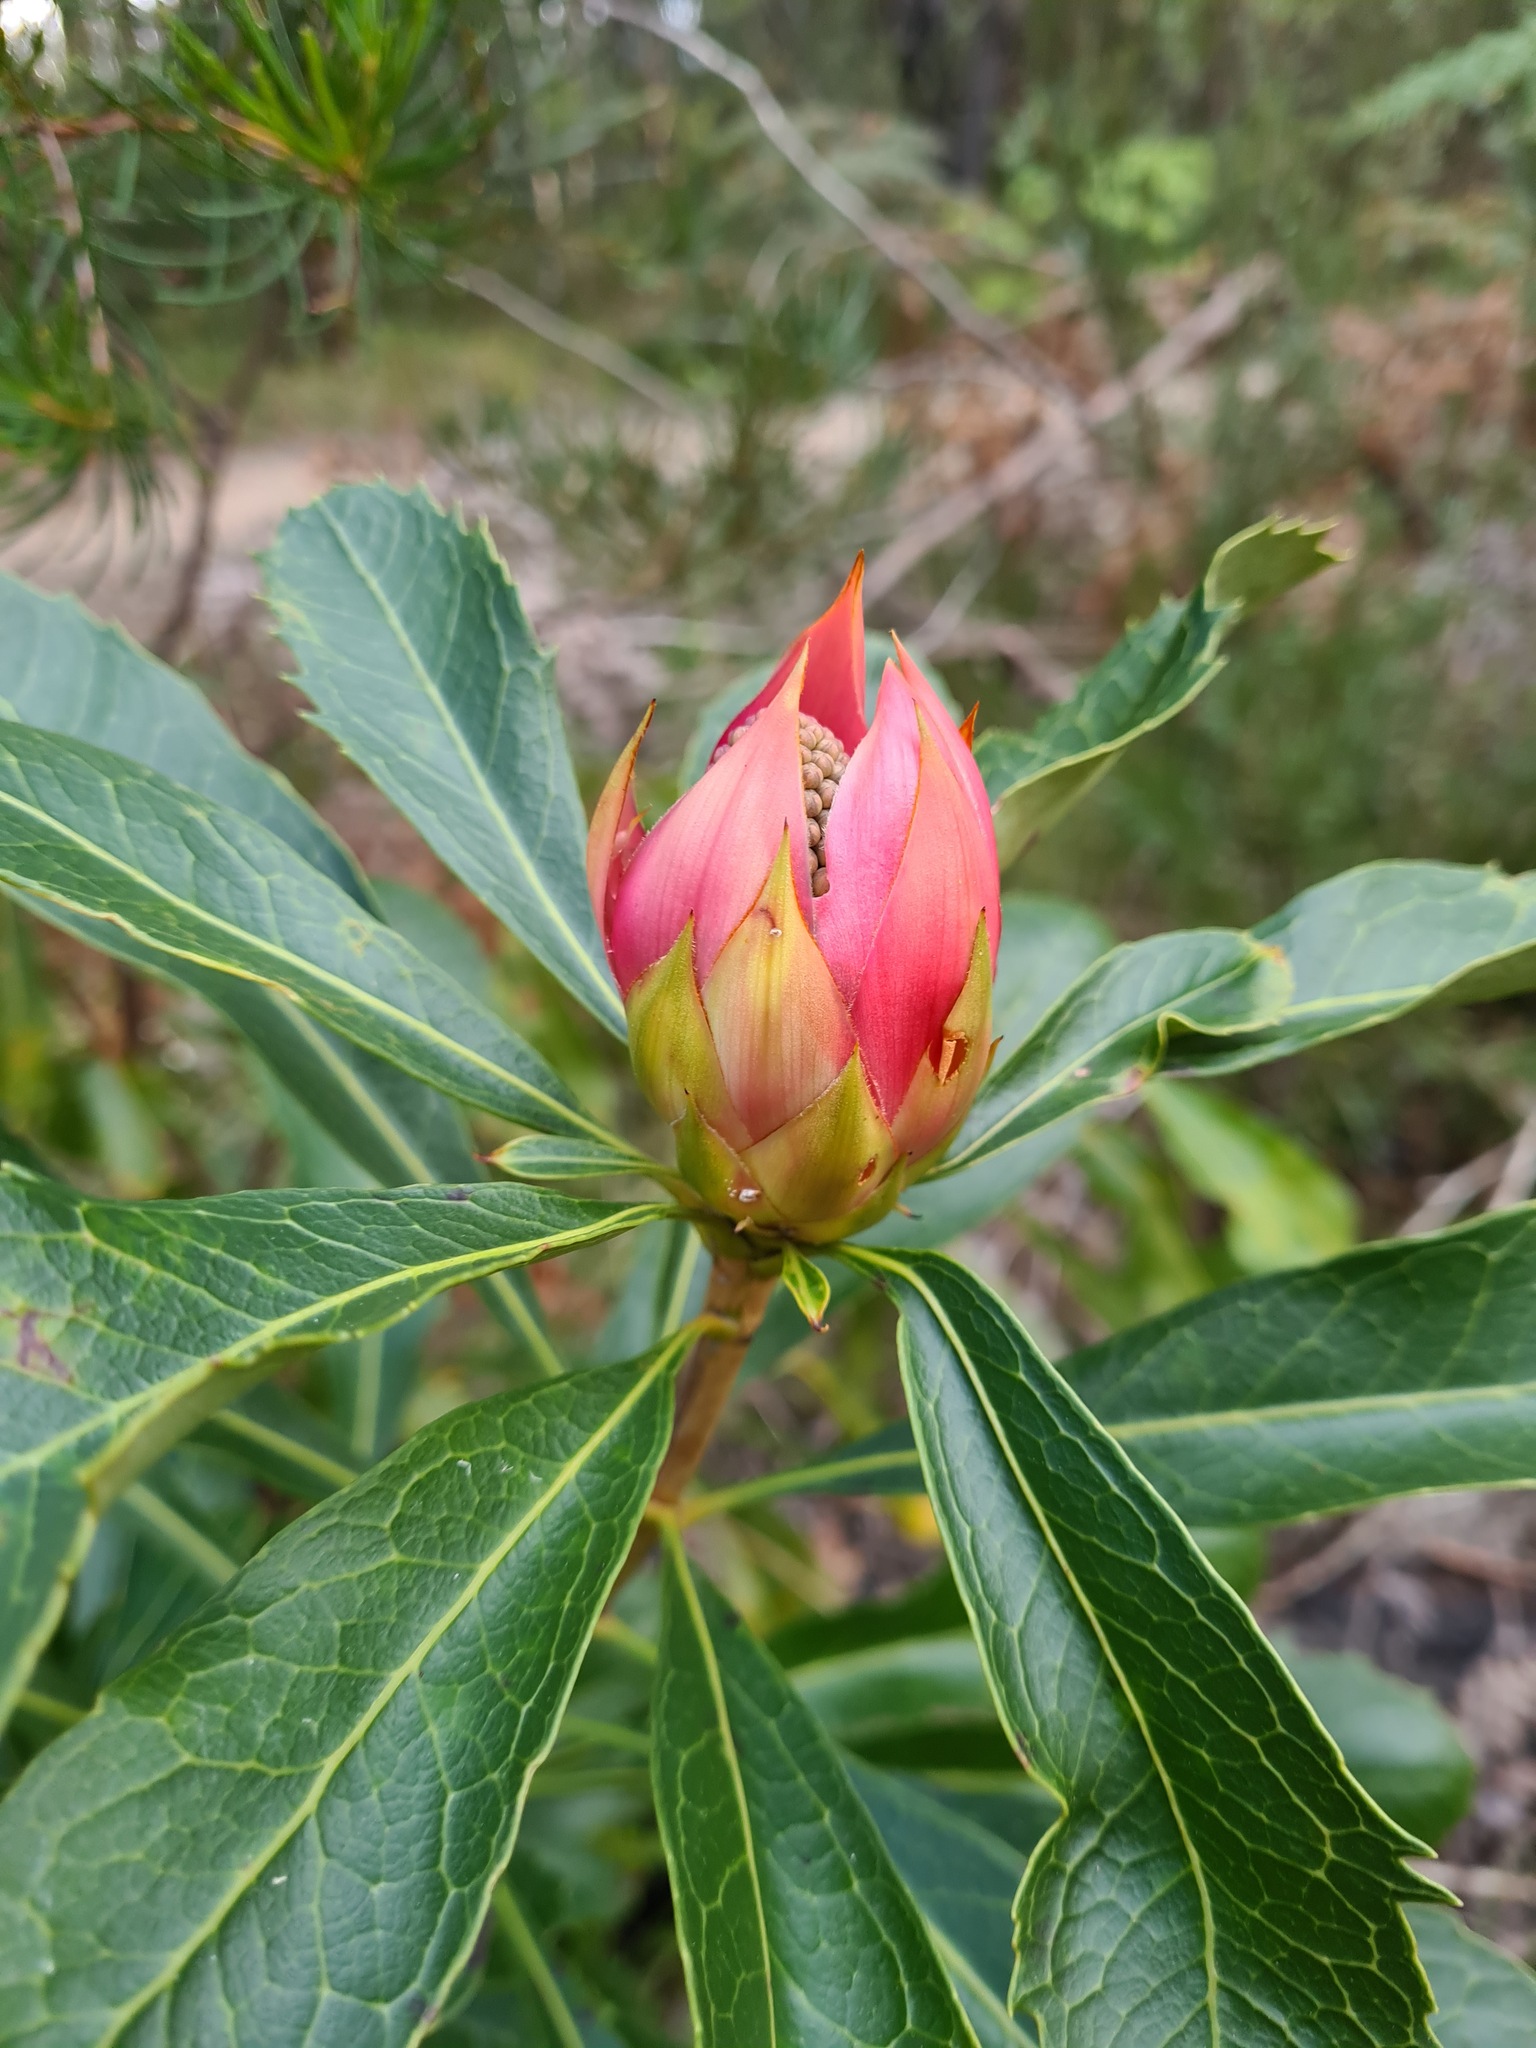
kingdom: Plantae
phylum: Tracheophyta
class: Magnoliopsida
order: Proteales
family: Proteaceae
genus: Telopea
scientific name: Telopea speciosissima
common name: New south wales waratah
